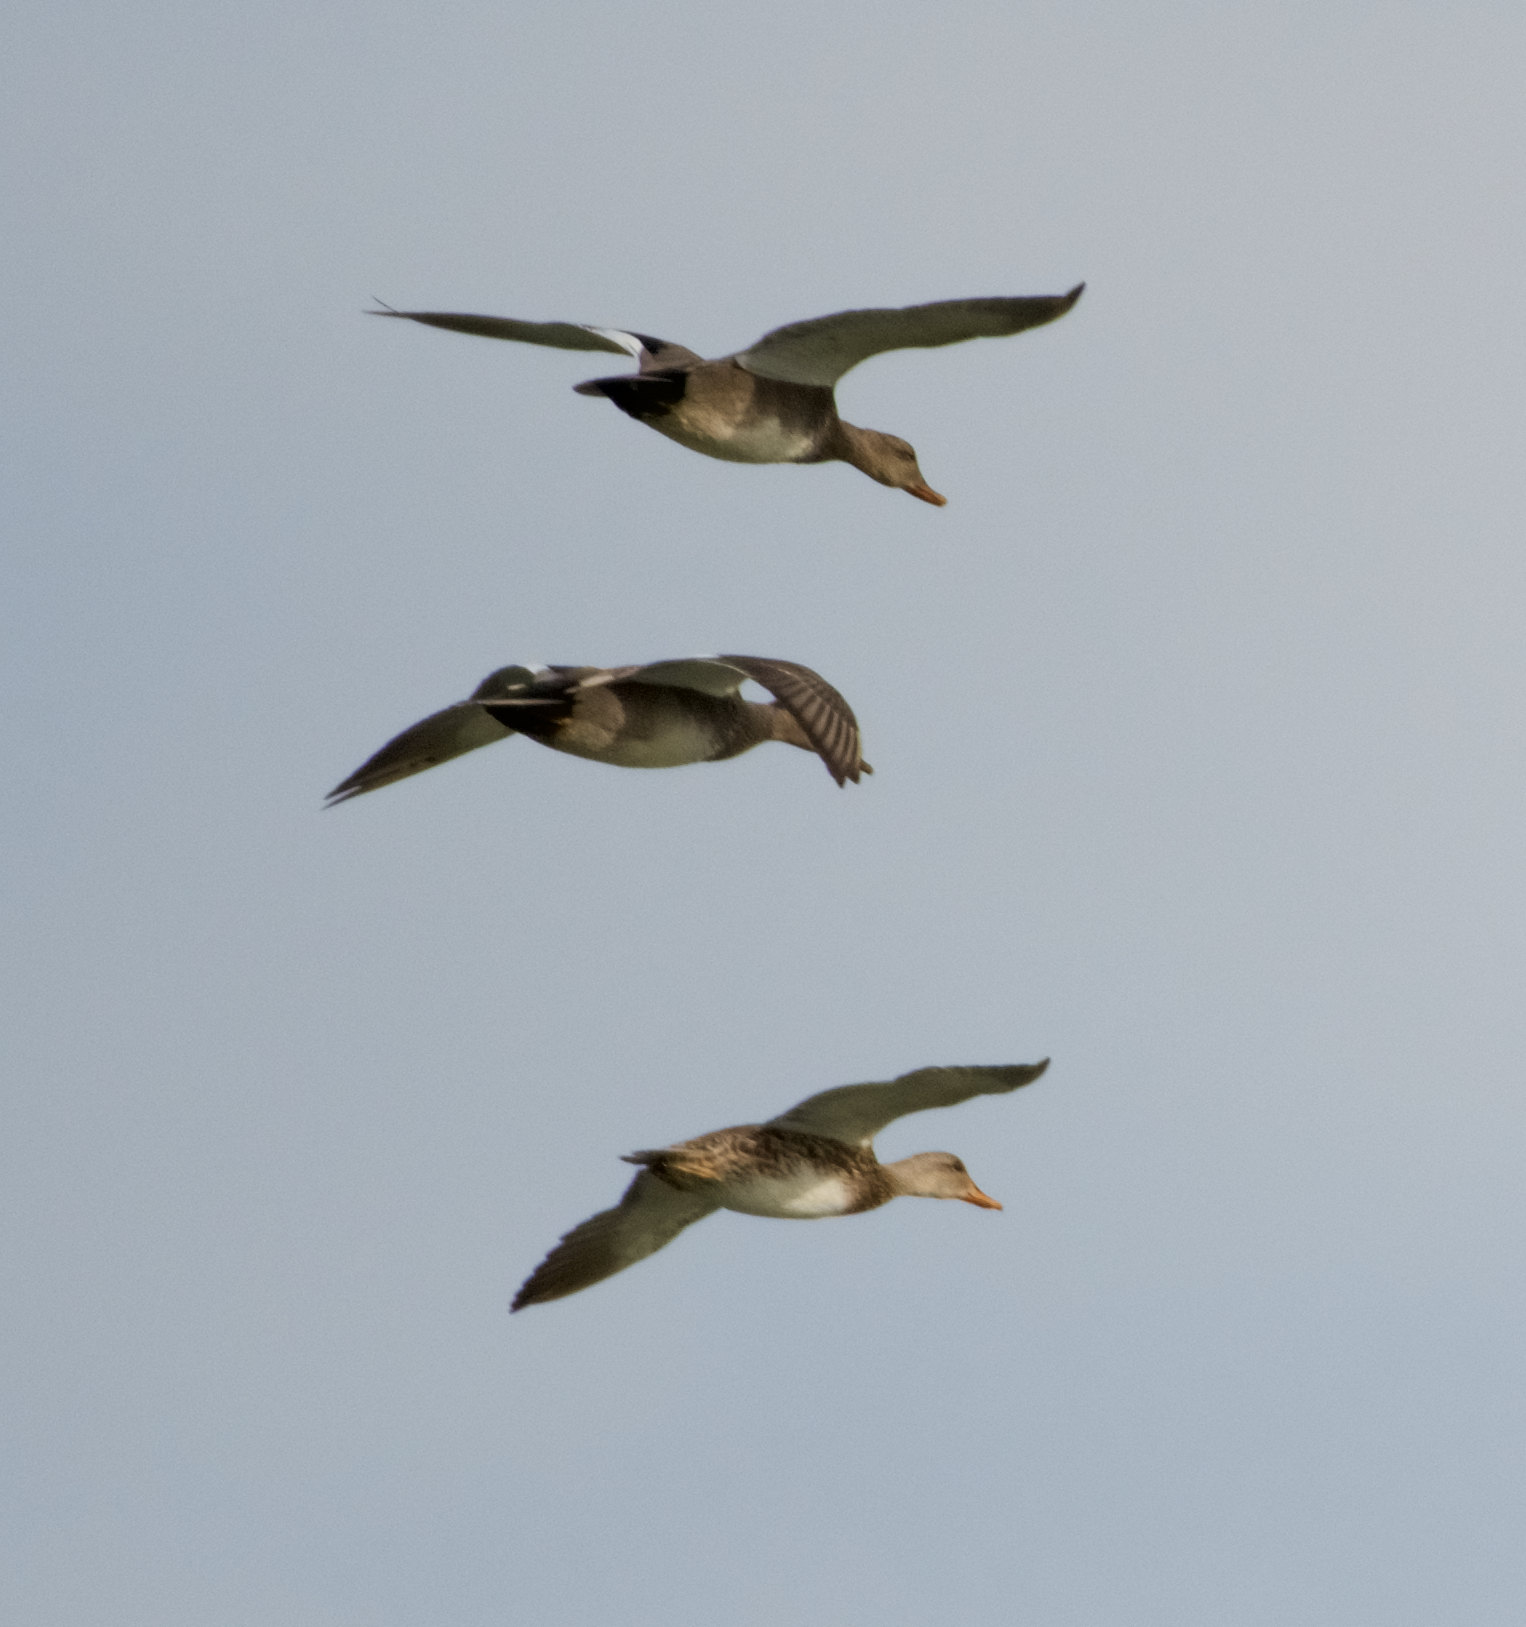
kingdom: Animalia
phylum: Chordata
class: Aves
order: Anseriformes
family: Anatidae
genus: Mareca
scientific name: Mareca strepera
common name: Gadwall
